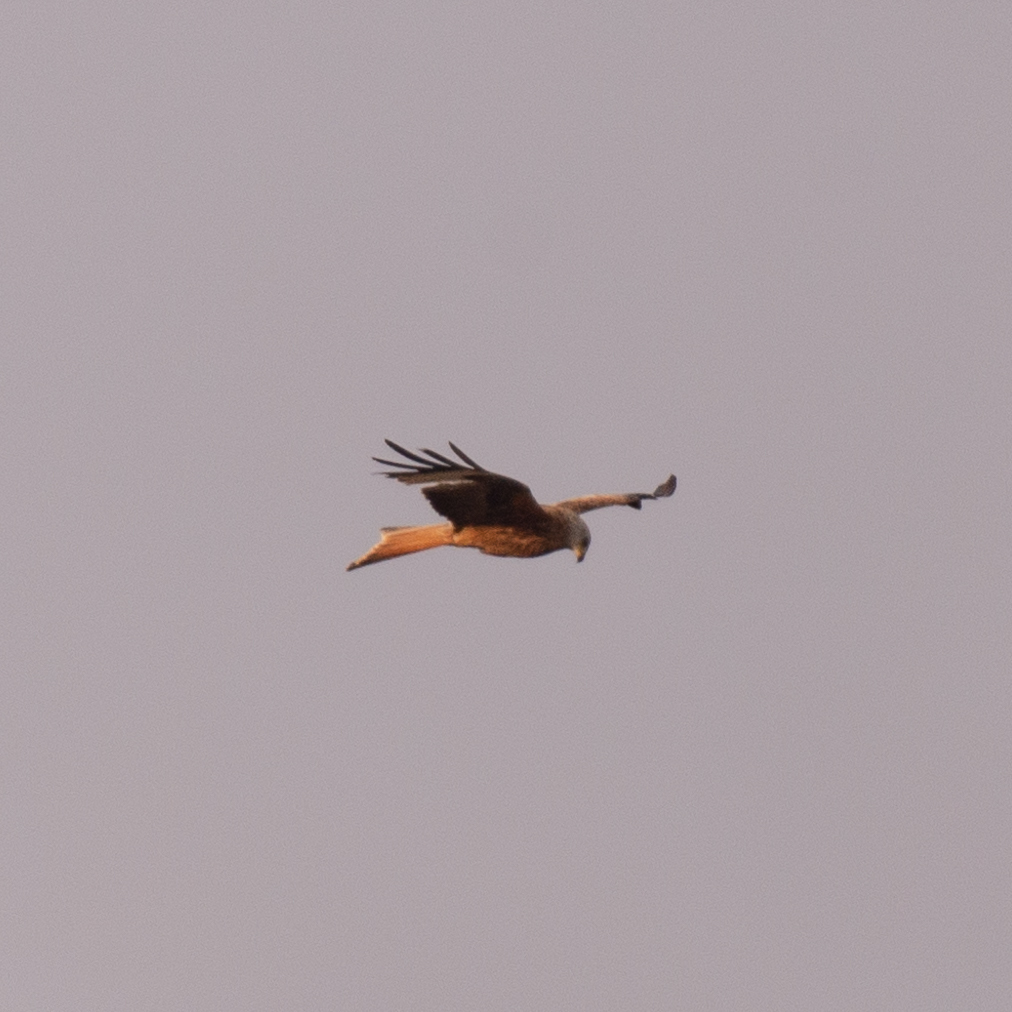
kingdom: Animalia
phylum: Chordata
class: Aves
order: Accipitriformes
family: Accipitridae
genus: Milvus
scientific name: Milvus milvus
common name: Red kite
